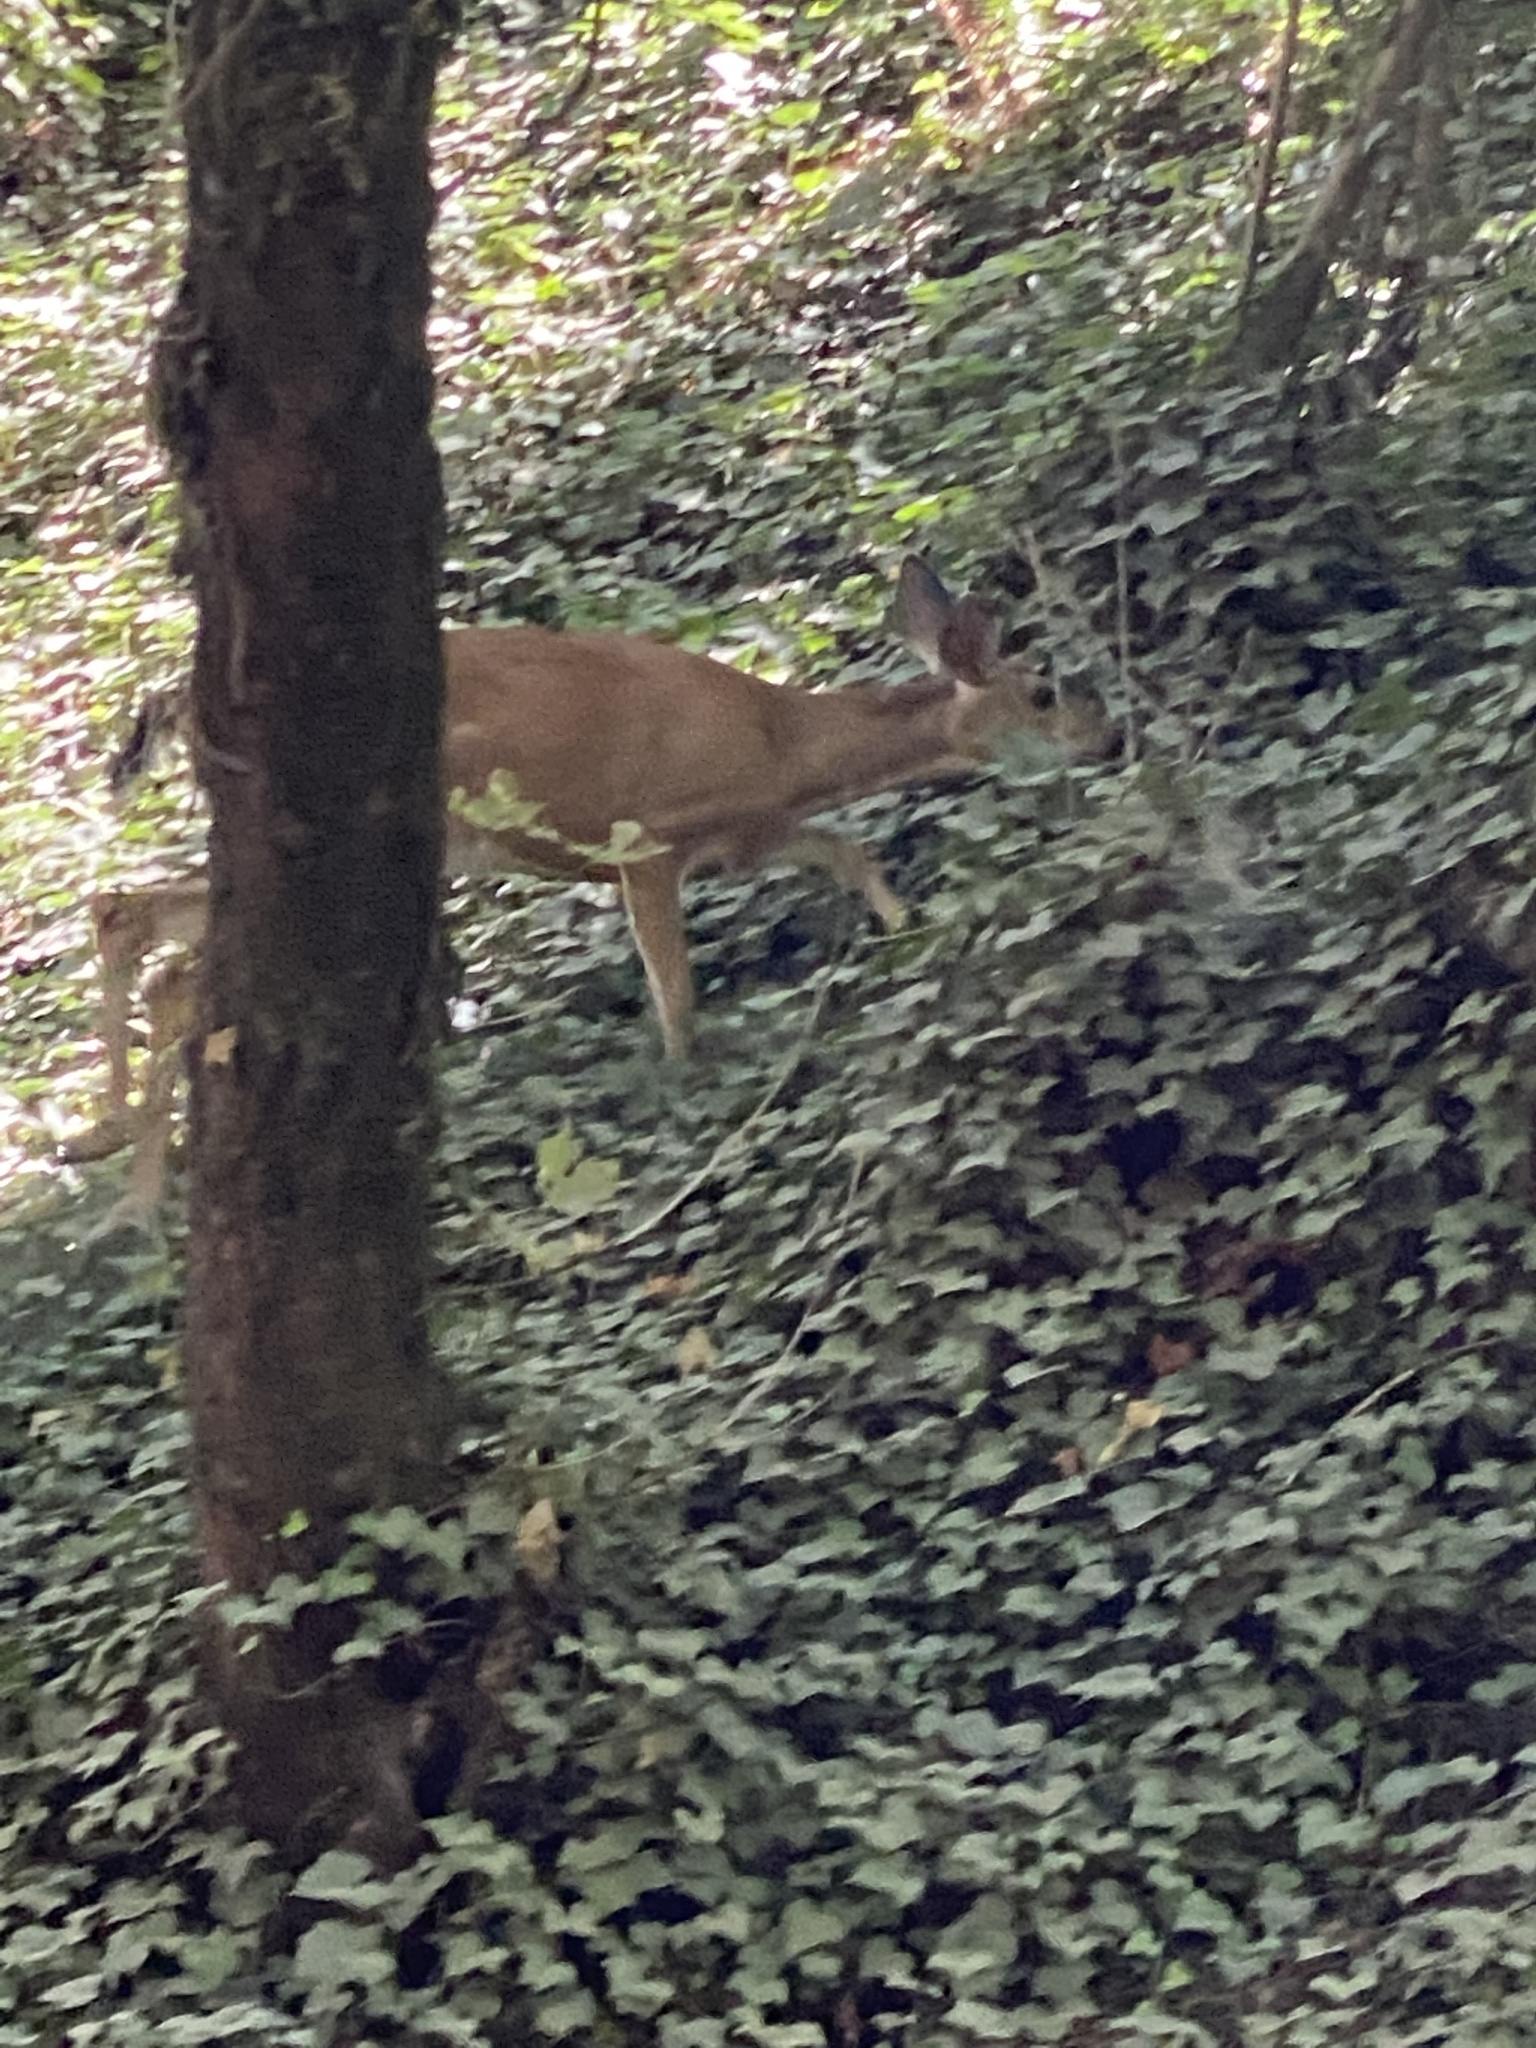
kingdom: Animalia
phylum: Chordata
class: Mammalia
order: Artiodactyla
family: Cervidae
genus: Odocoileus
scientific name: Odocoileus hemionus
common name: Mule deer
